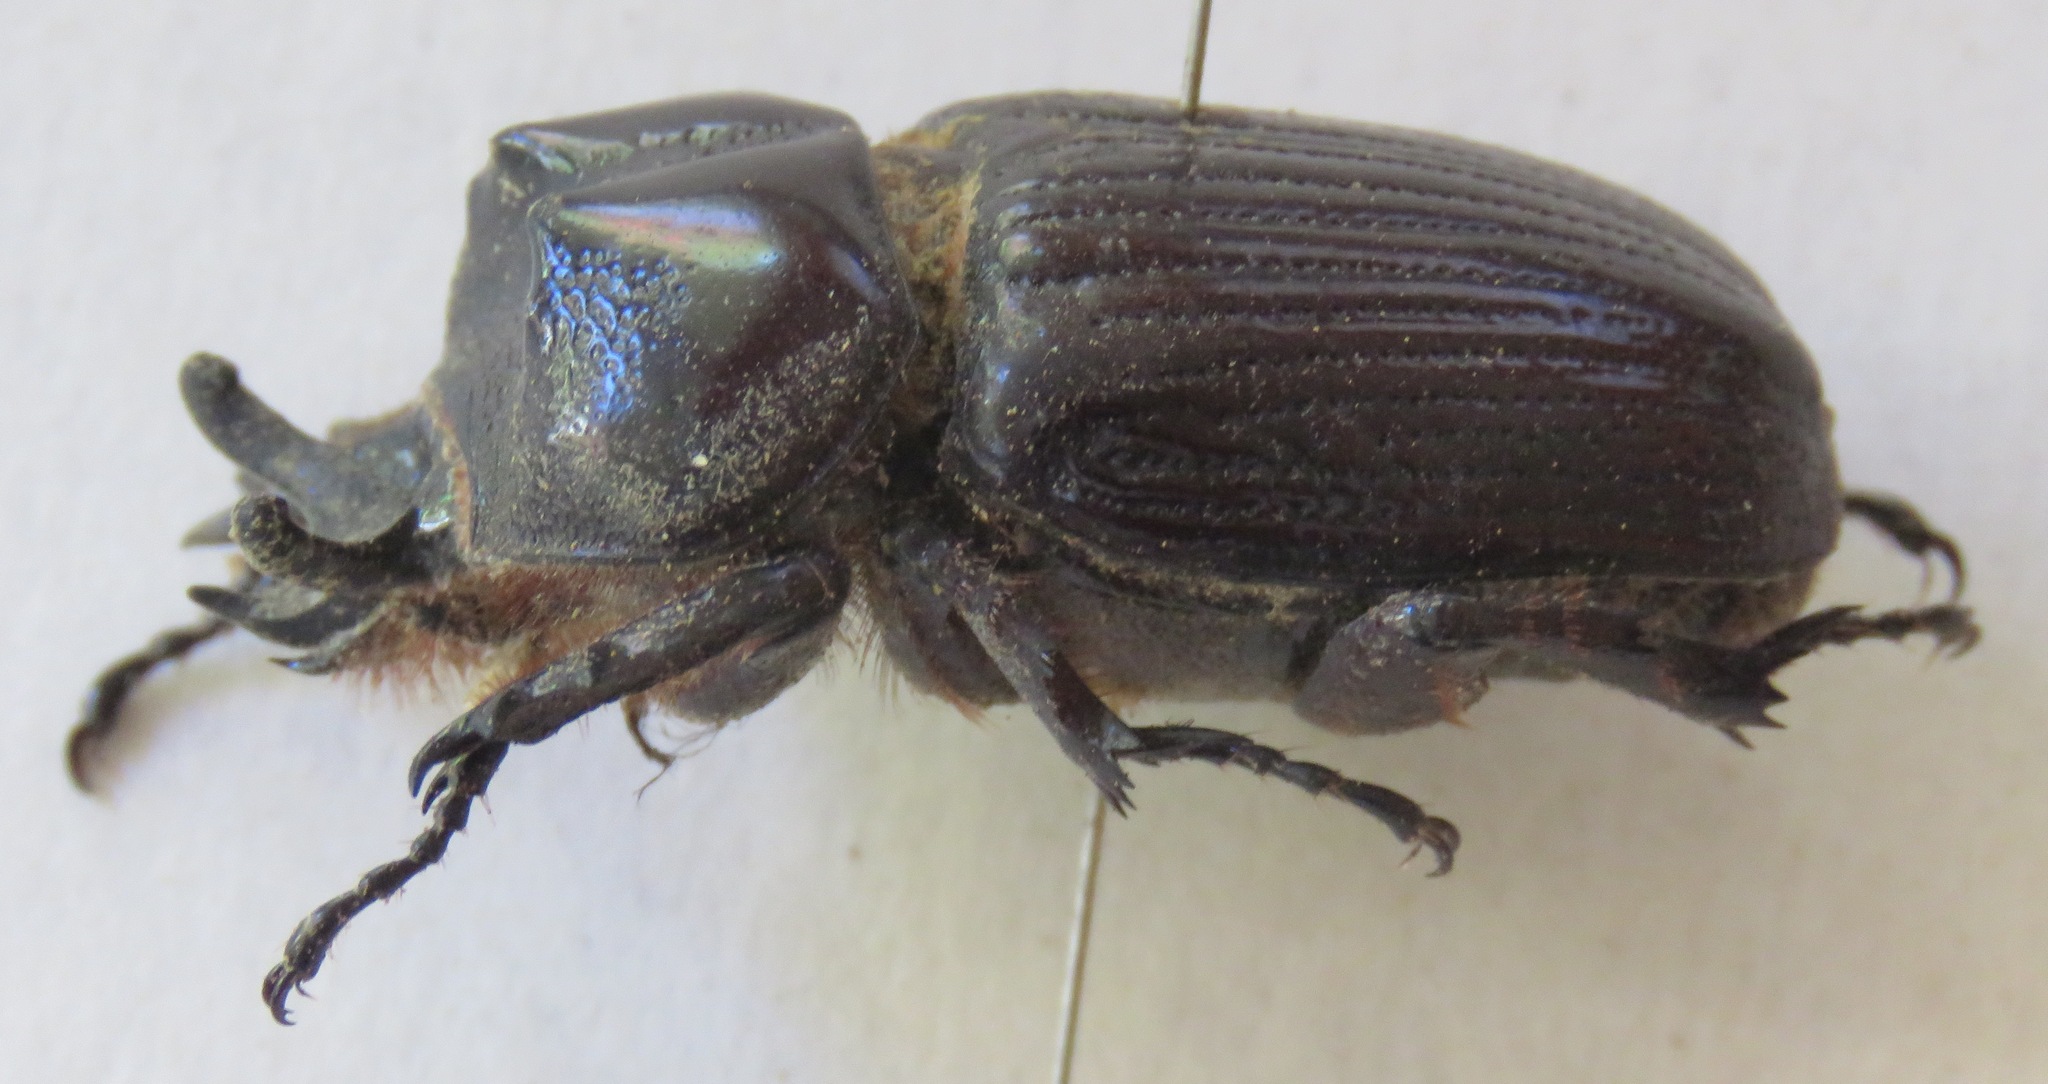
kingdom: Animalia
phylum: Arthropoda
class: Insecta
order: Coleoptera
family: Scarabaeidae
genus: Homophileurus
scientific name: Homophileurus tricuspis
